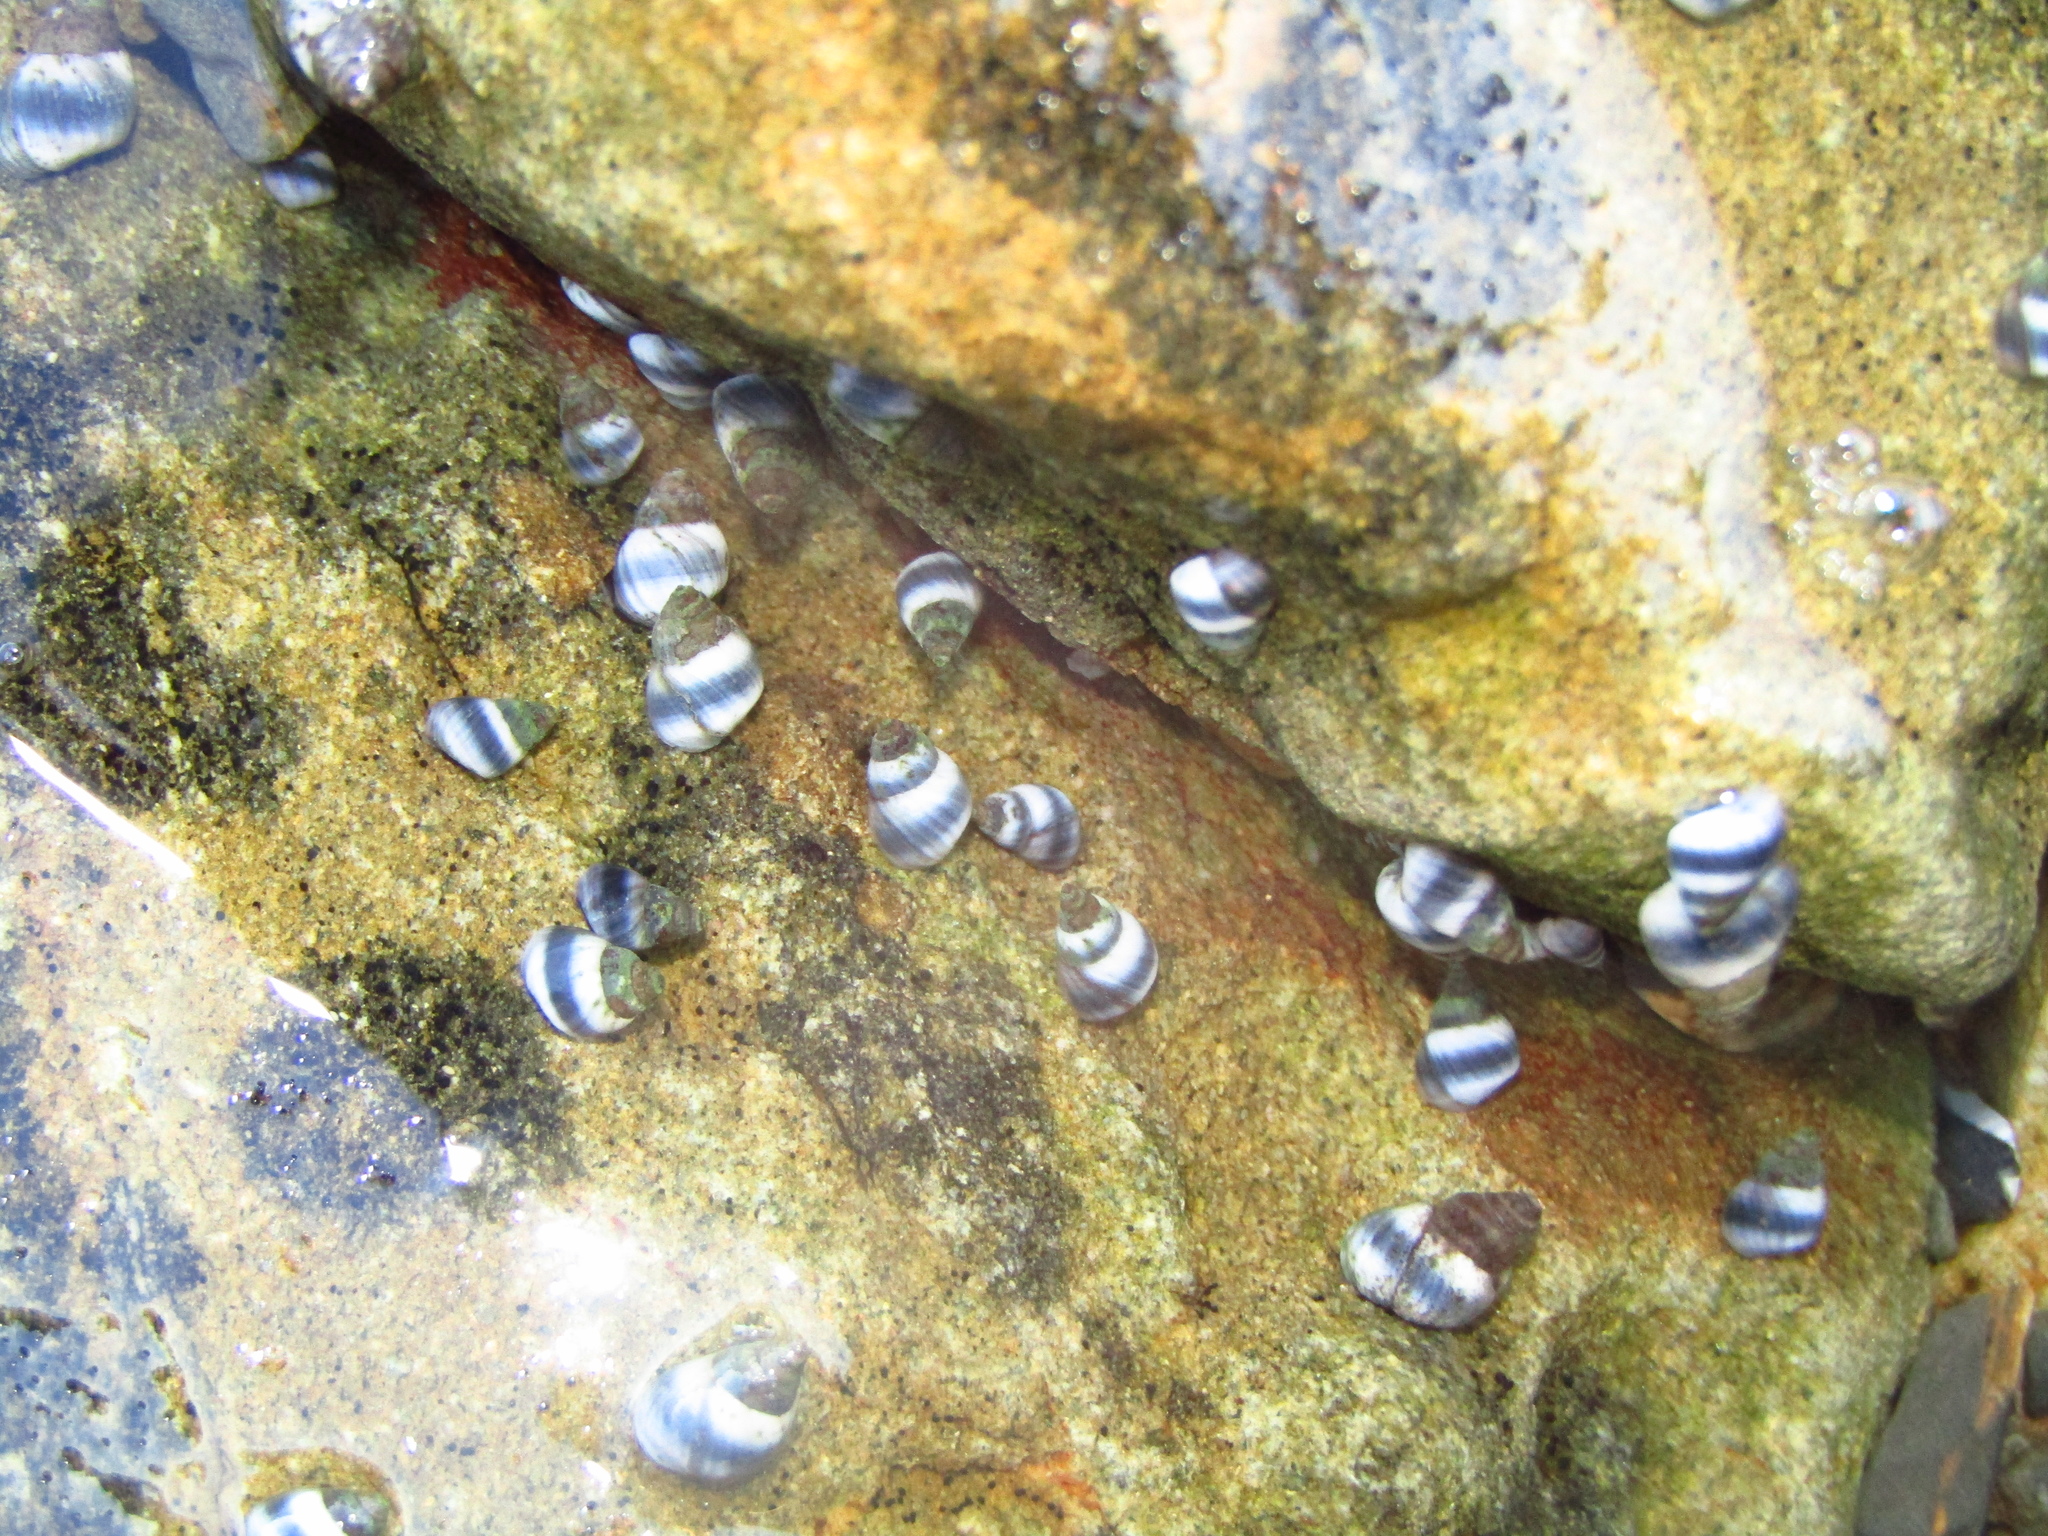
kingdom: Animalia
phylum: Mollusca
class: Gastropoda
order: Littorinimorpha
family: Littorinidae
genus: Austrolittorina
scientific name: Austrolittorina antipodum
